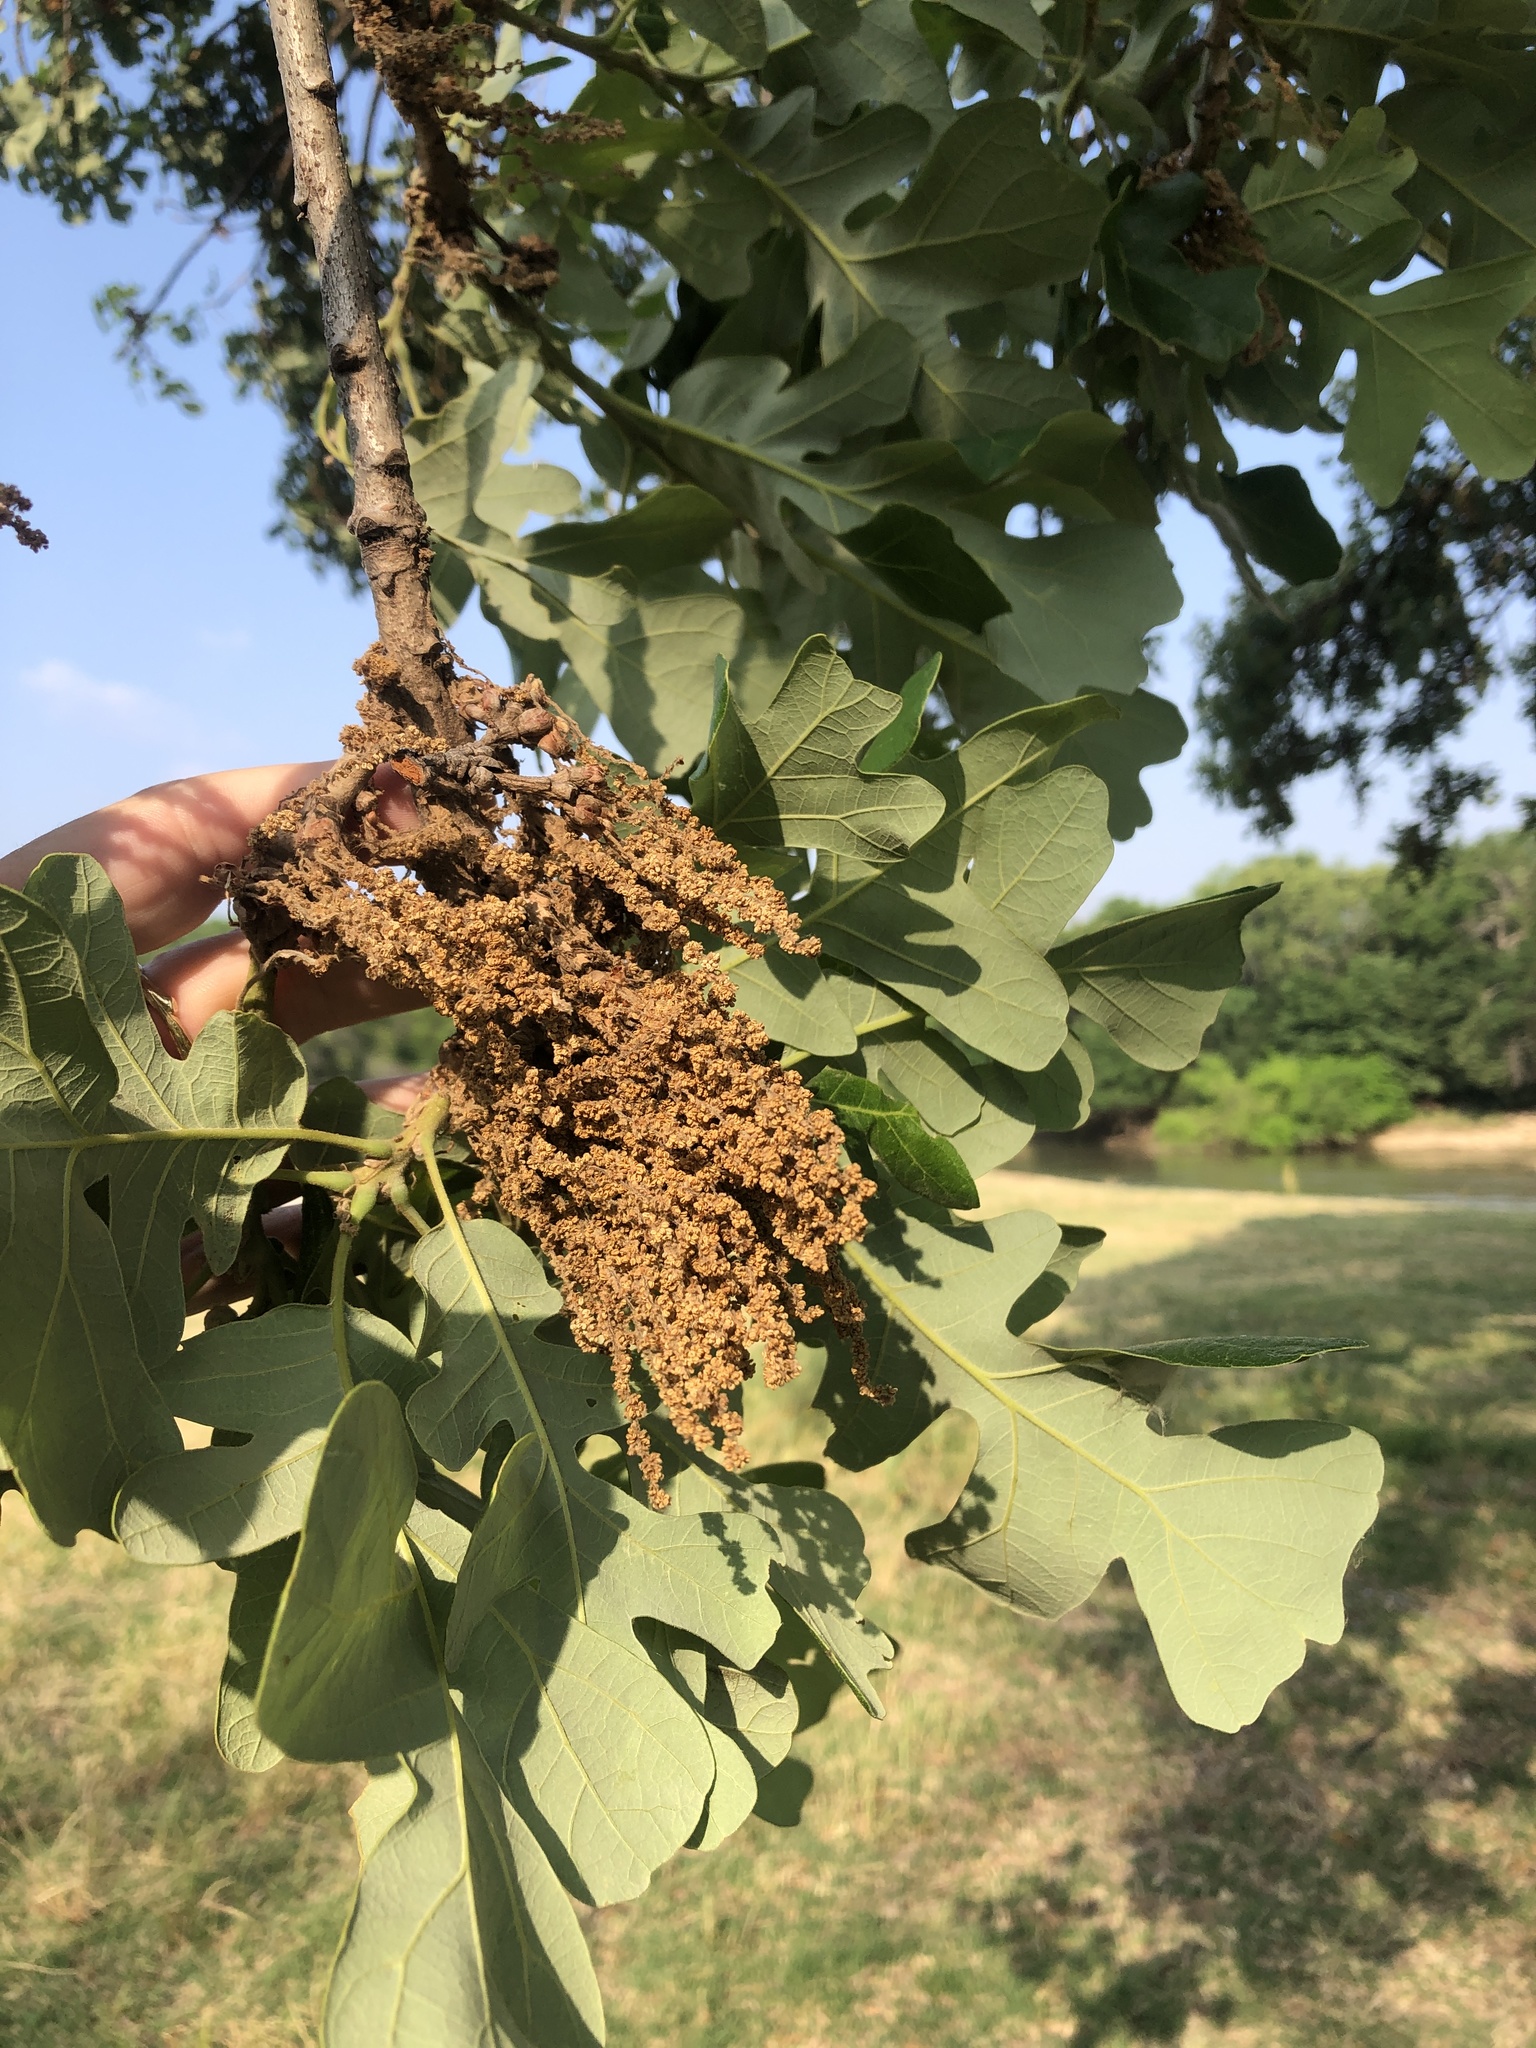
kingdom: Plantae
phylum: Tracheophyta
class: Magnoliopsida
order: Fagales
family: Fagaceae
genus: Quercus
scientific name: Quercus macrocarpa
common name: Bur oak
